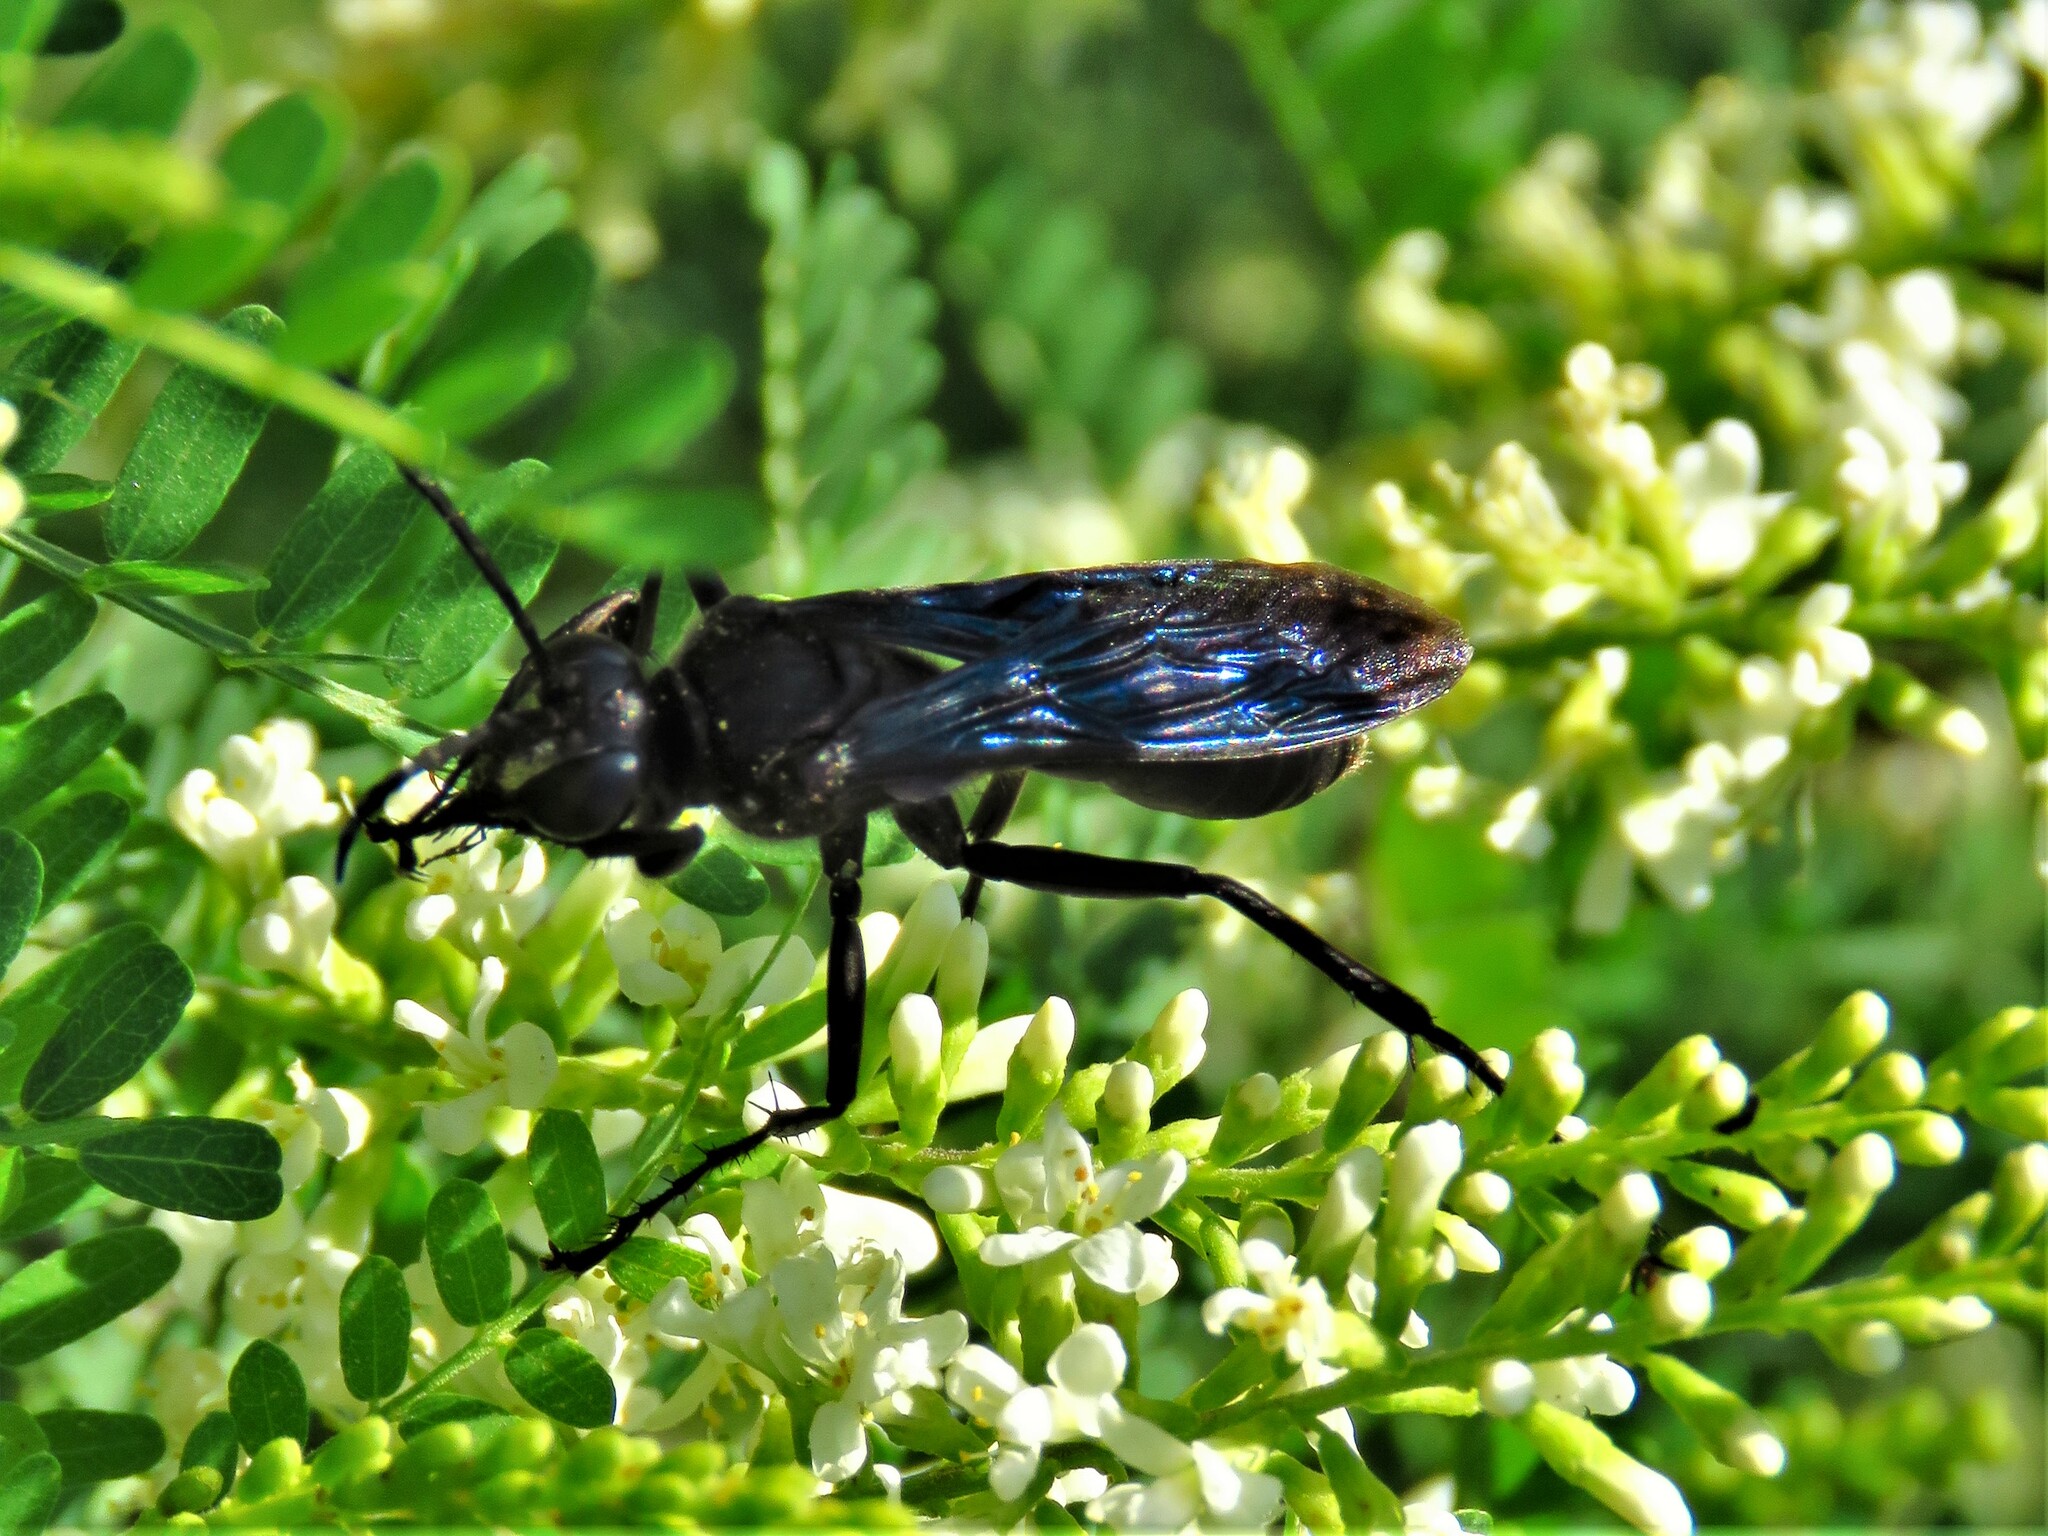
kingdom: Animalia
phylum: Arthropoda
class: Insecta
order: Hymenoptera
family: Sphecidae
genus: Sphex
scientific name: Sphex pensylvanicus
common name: Great black digger wasp
